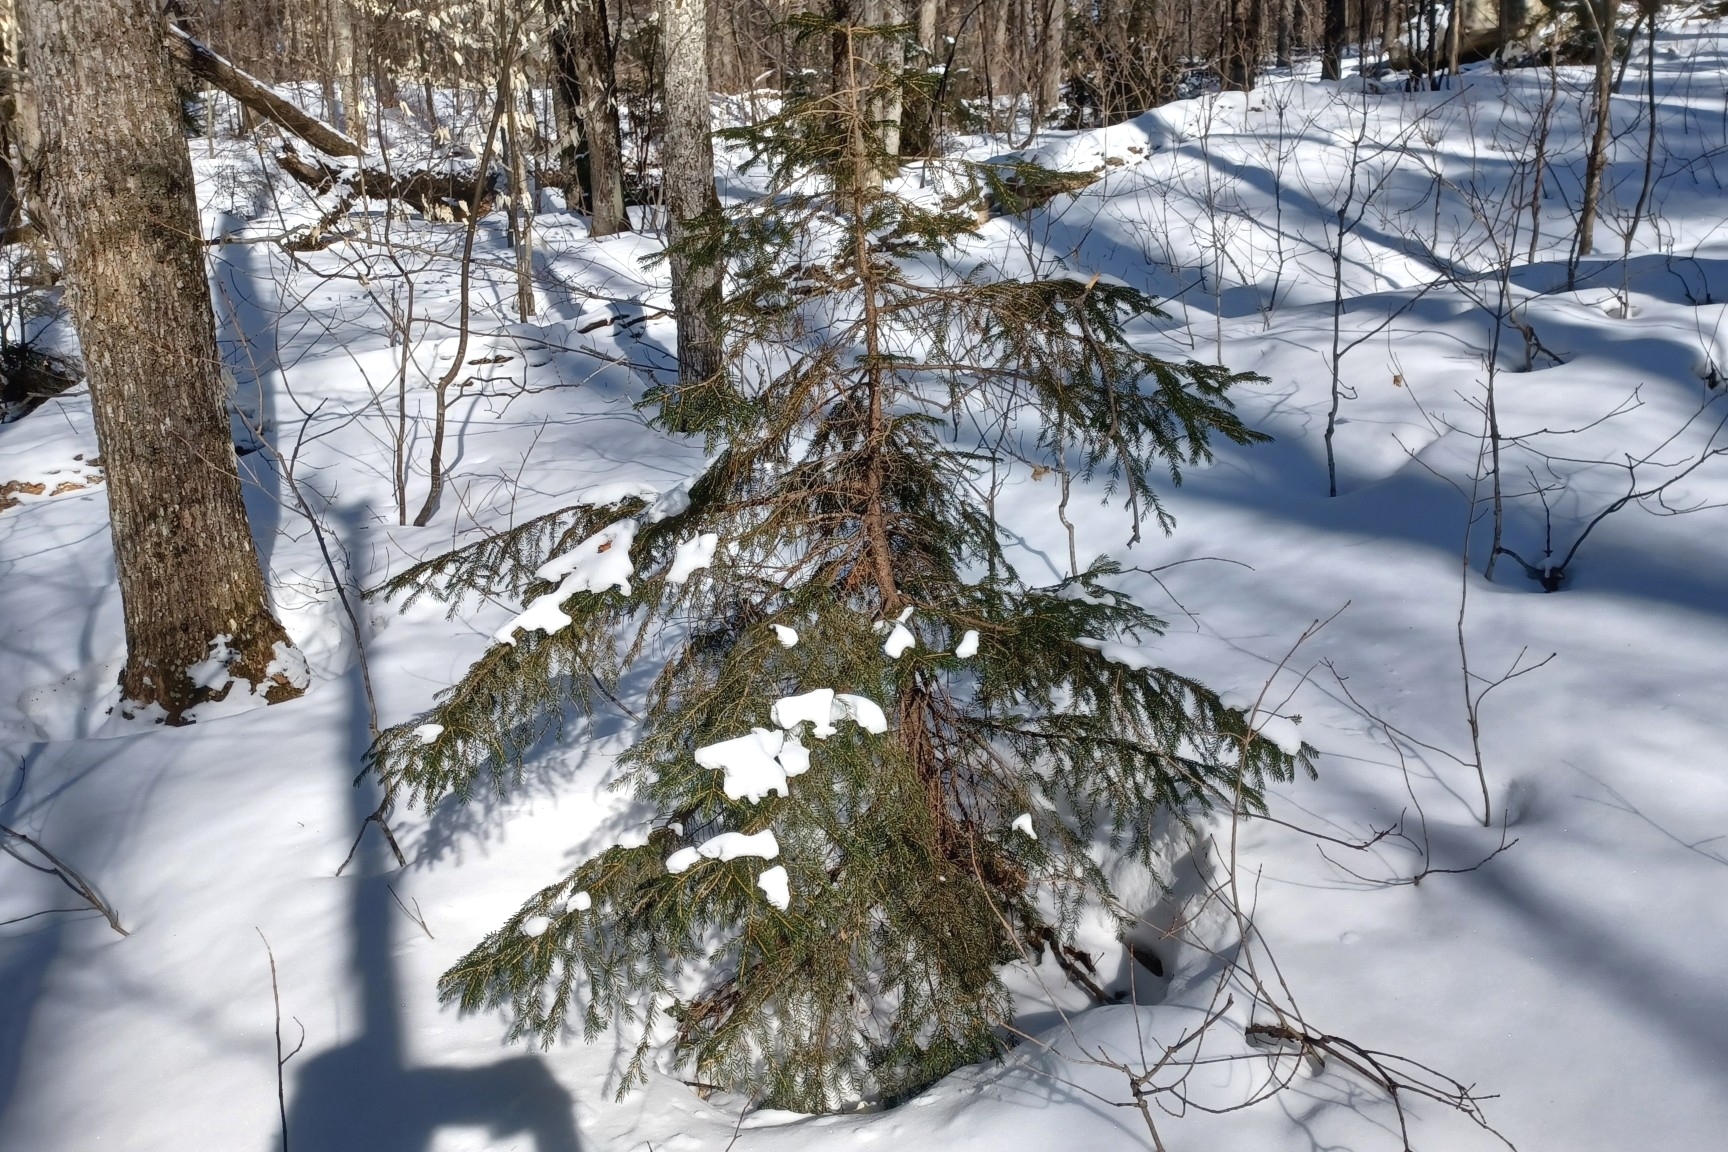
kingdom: Plantae
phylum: Tracheophyta
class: Pinopsida
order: Pinales
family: Pinaceae
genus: Picea
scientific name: Picea rubens
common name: Red spruce
